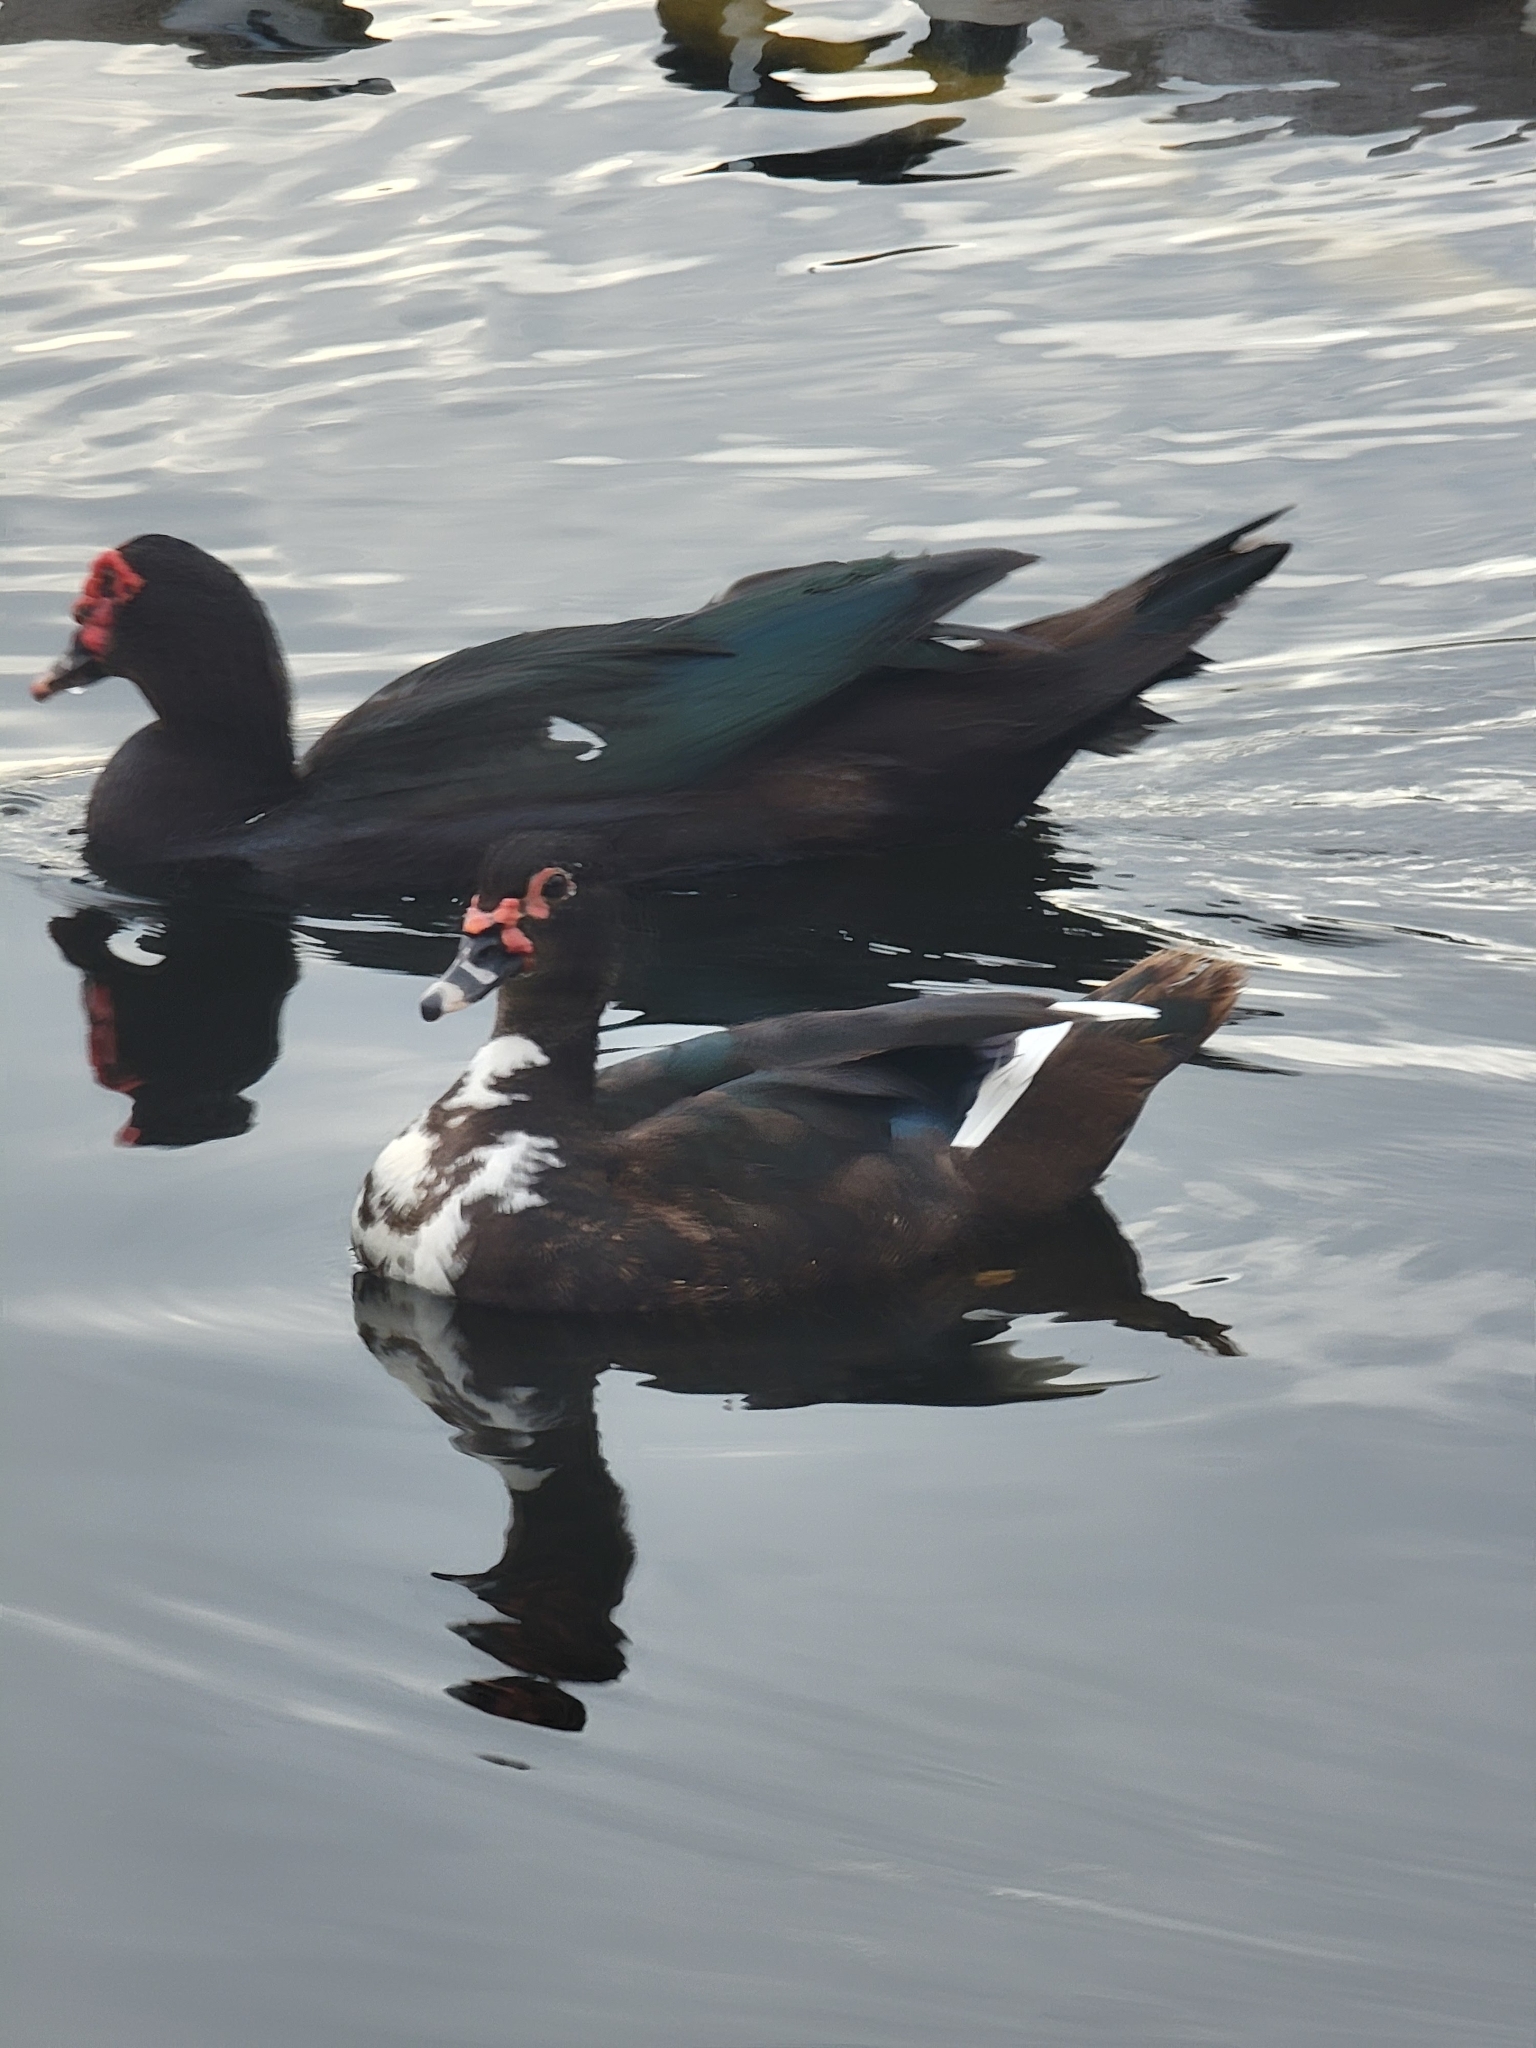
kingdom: Animalia
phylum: Chordata
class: Aves
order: Anseriformes
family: Anatidae
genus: Cairina
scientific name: Cairina moschata
